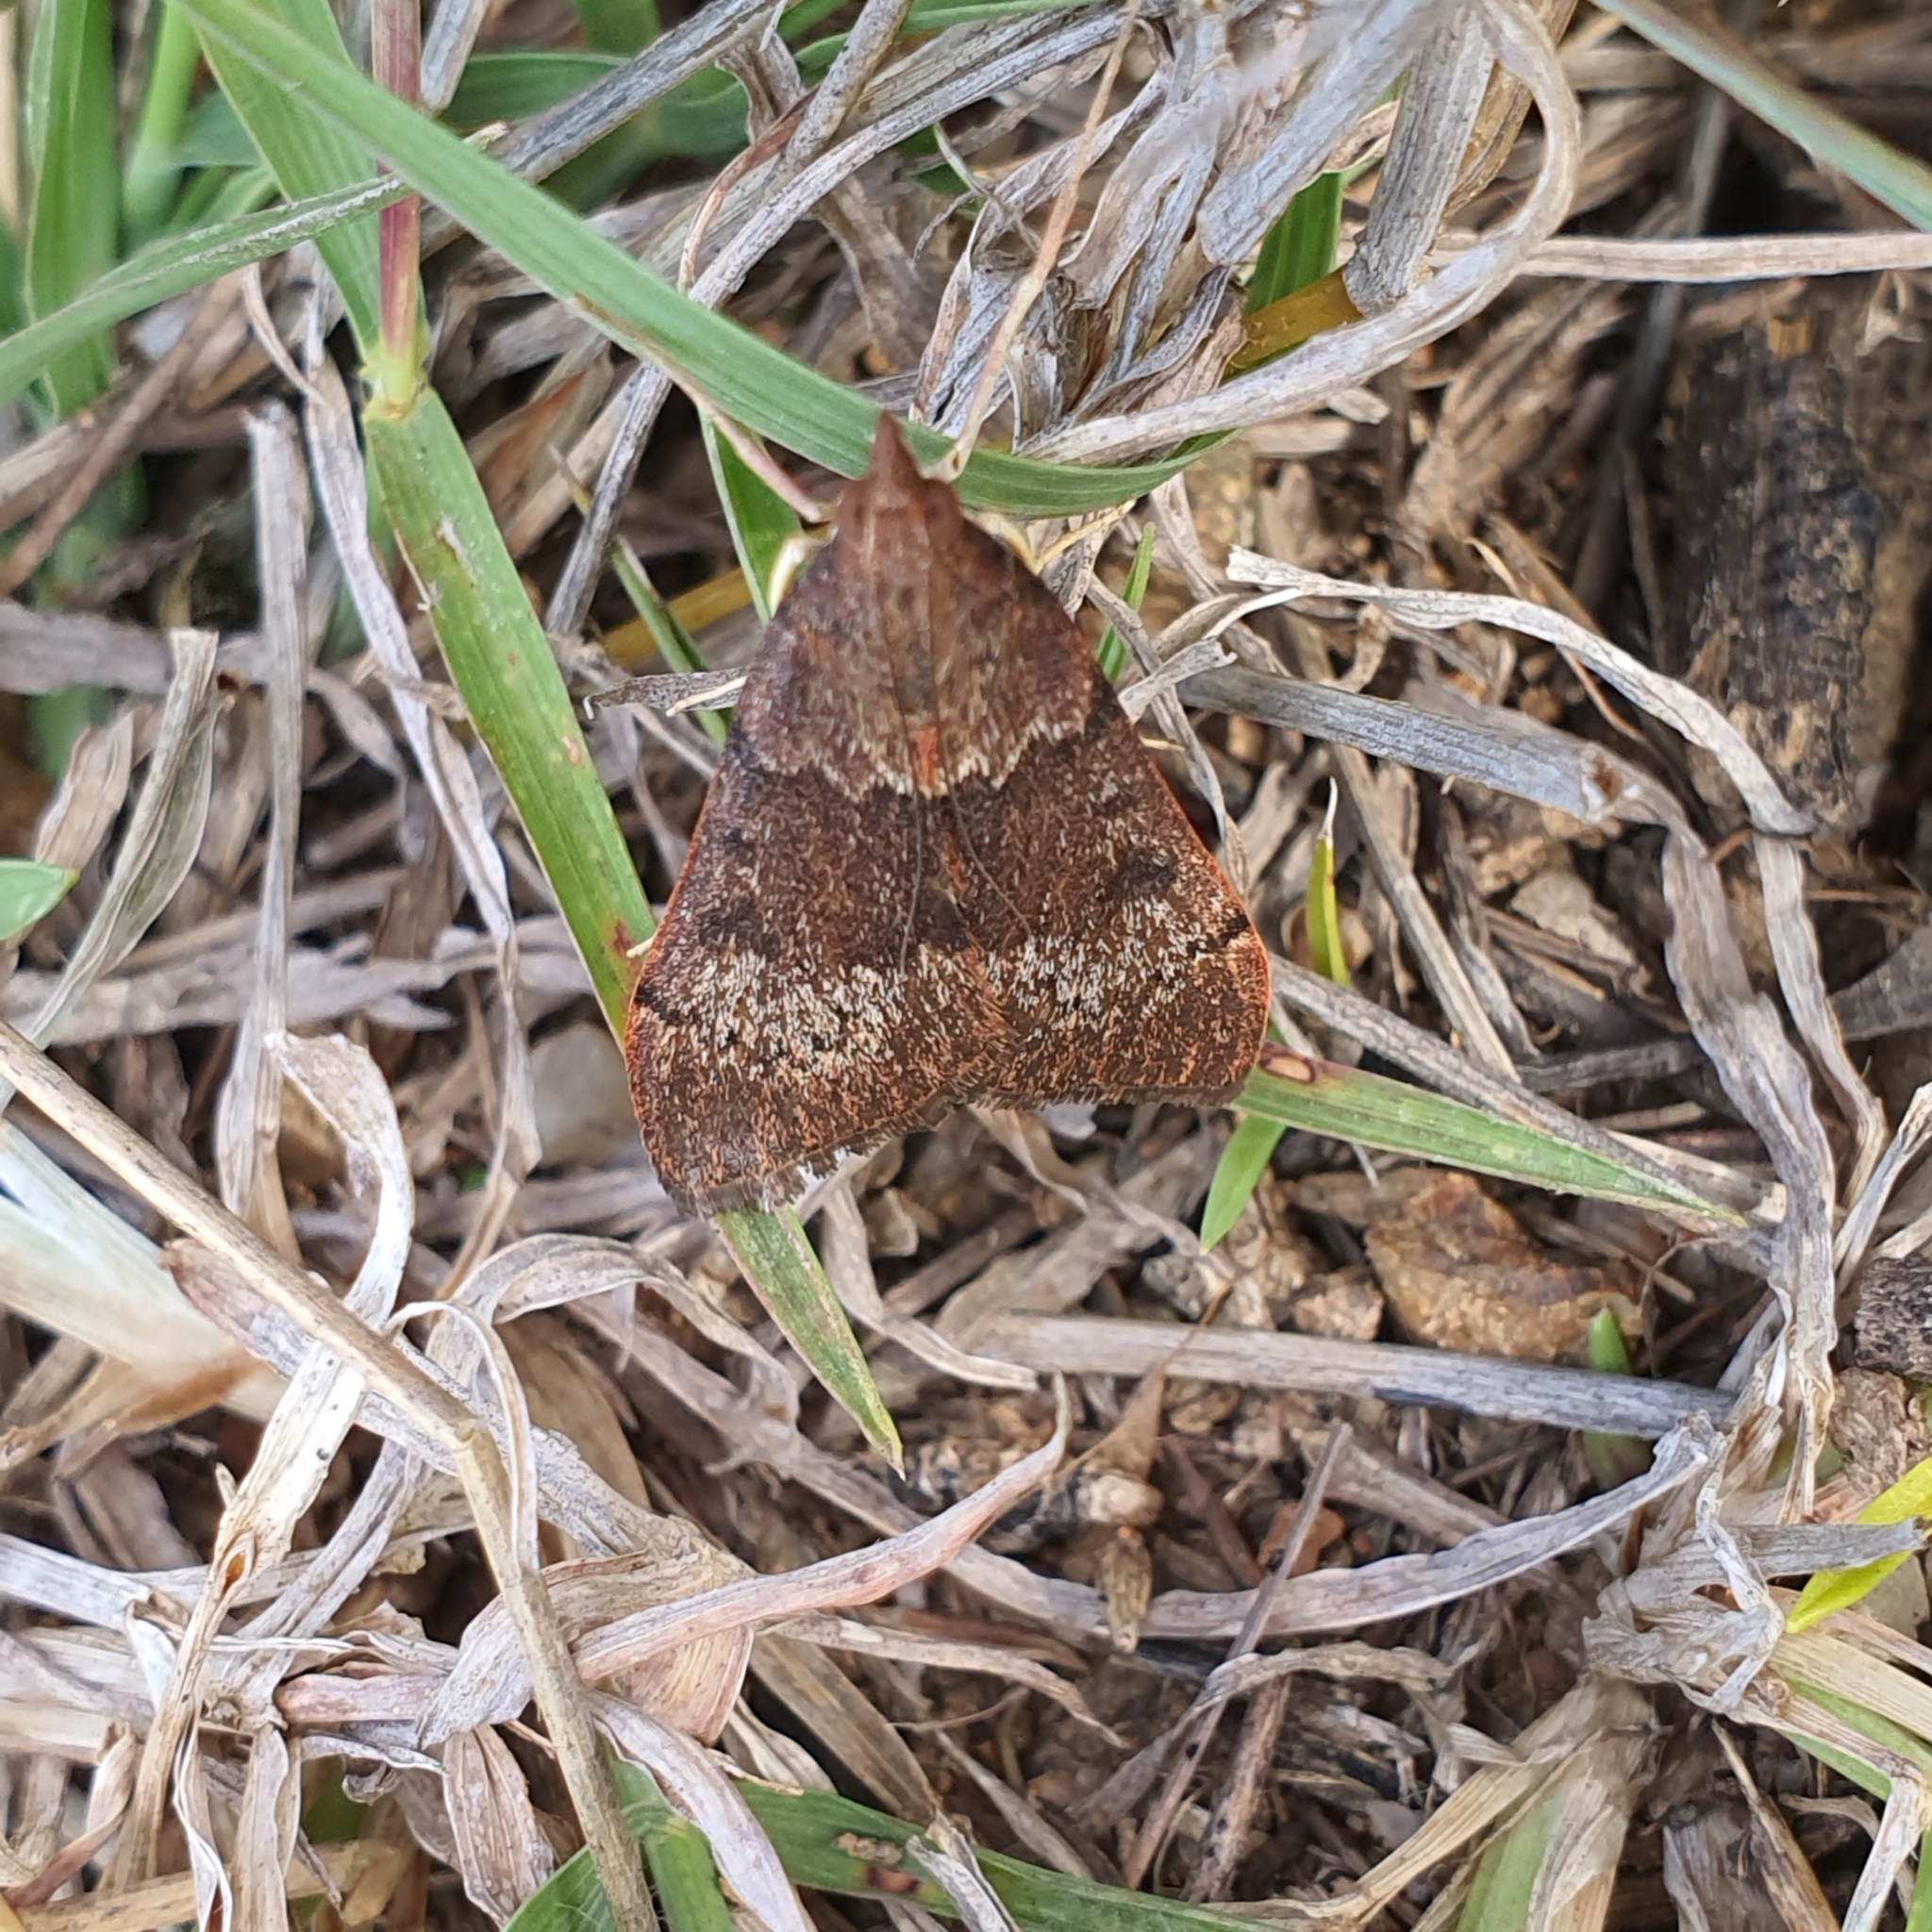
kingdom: Animalia
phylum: Arthropoda
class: Insecta
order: Lepidoptera
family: Crambidae
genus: Uresiphita
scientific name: Uresiphita ornithopteralis
